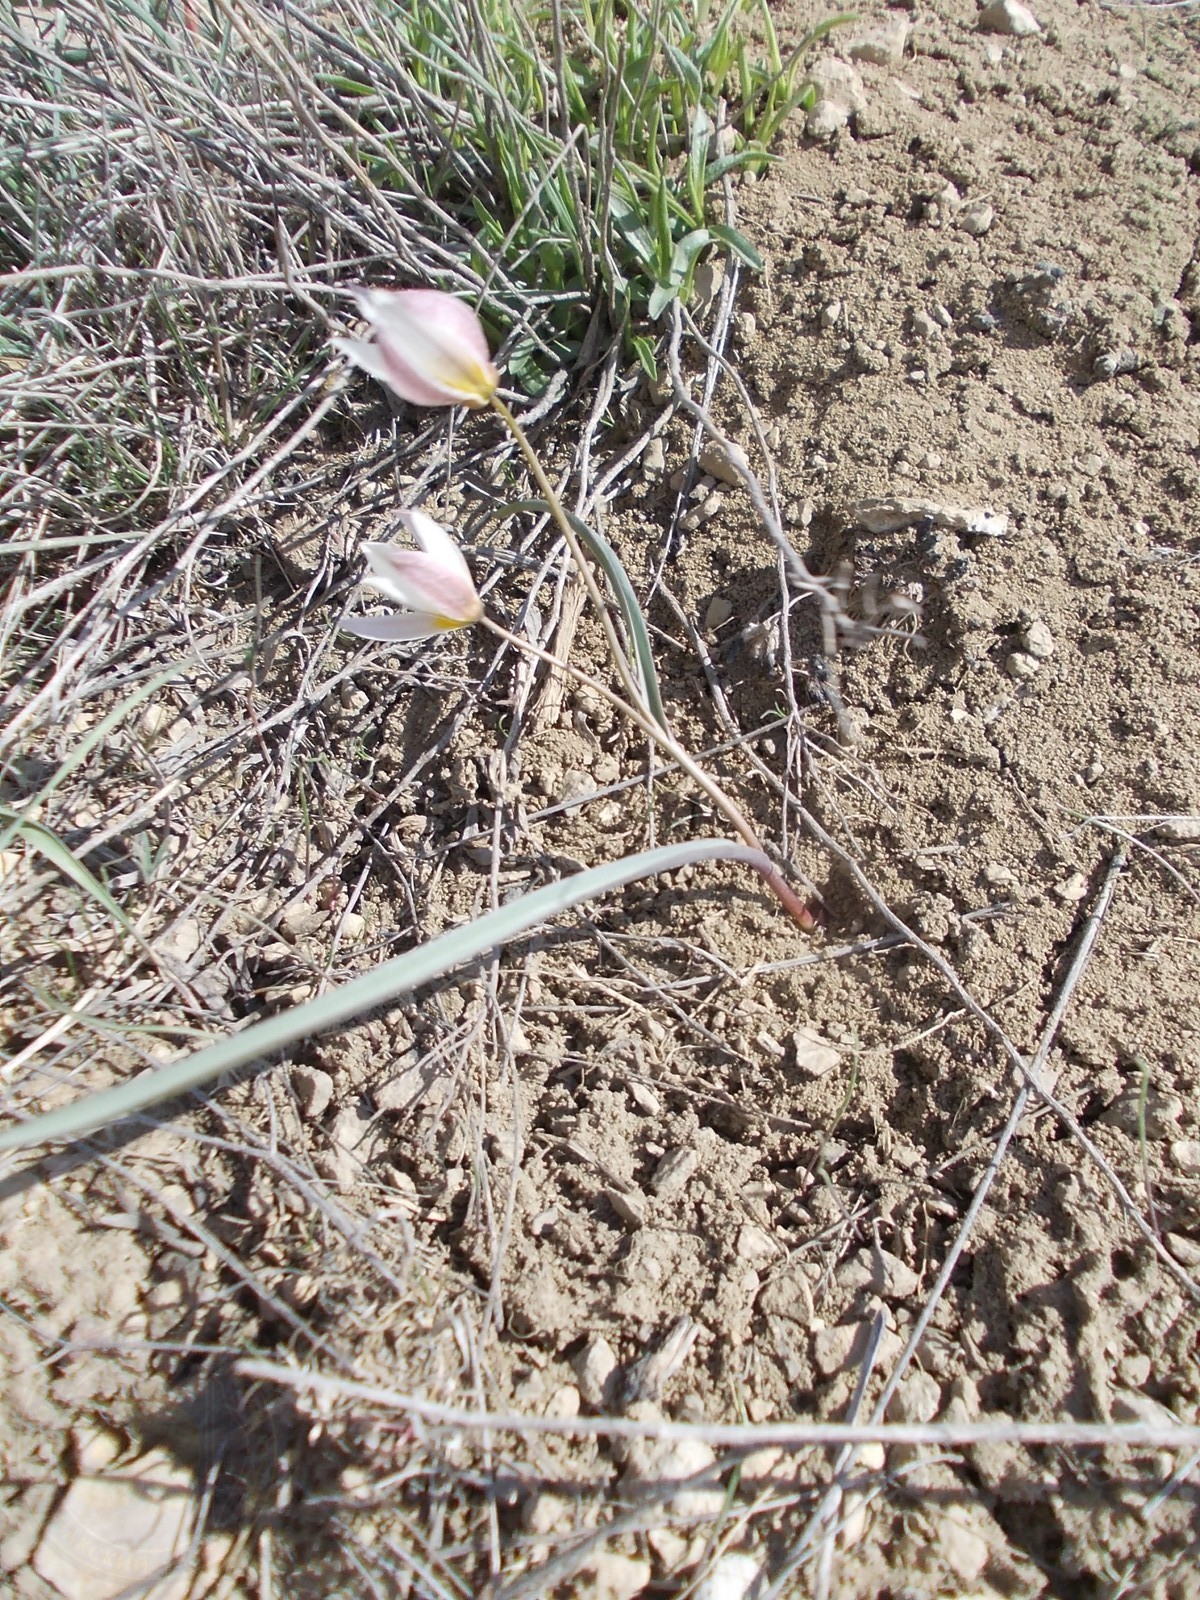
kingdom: Plantae
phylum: Tracheophyta
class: Liliopsida
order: Liliales
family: Liliaceae
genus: Tulipa
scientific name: Tulipa biflora
